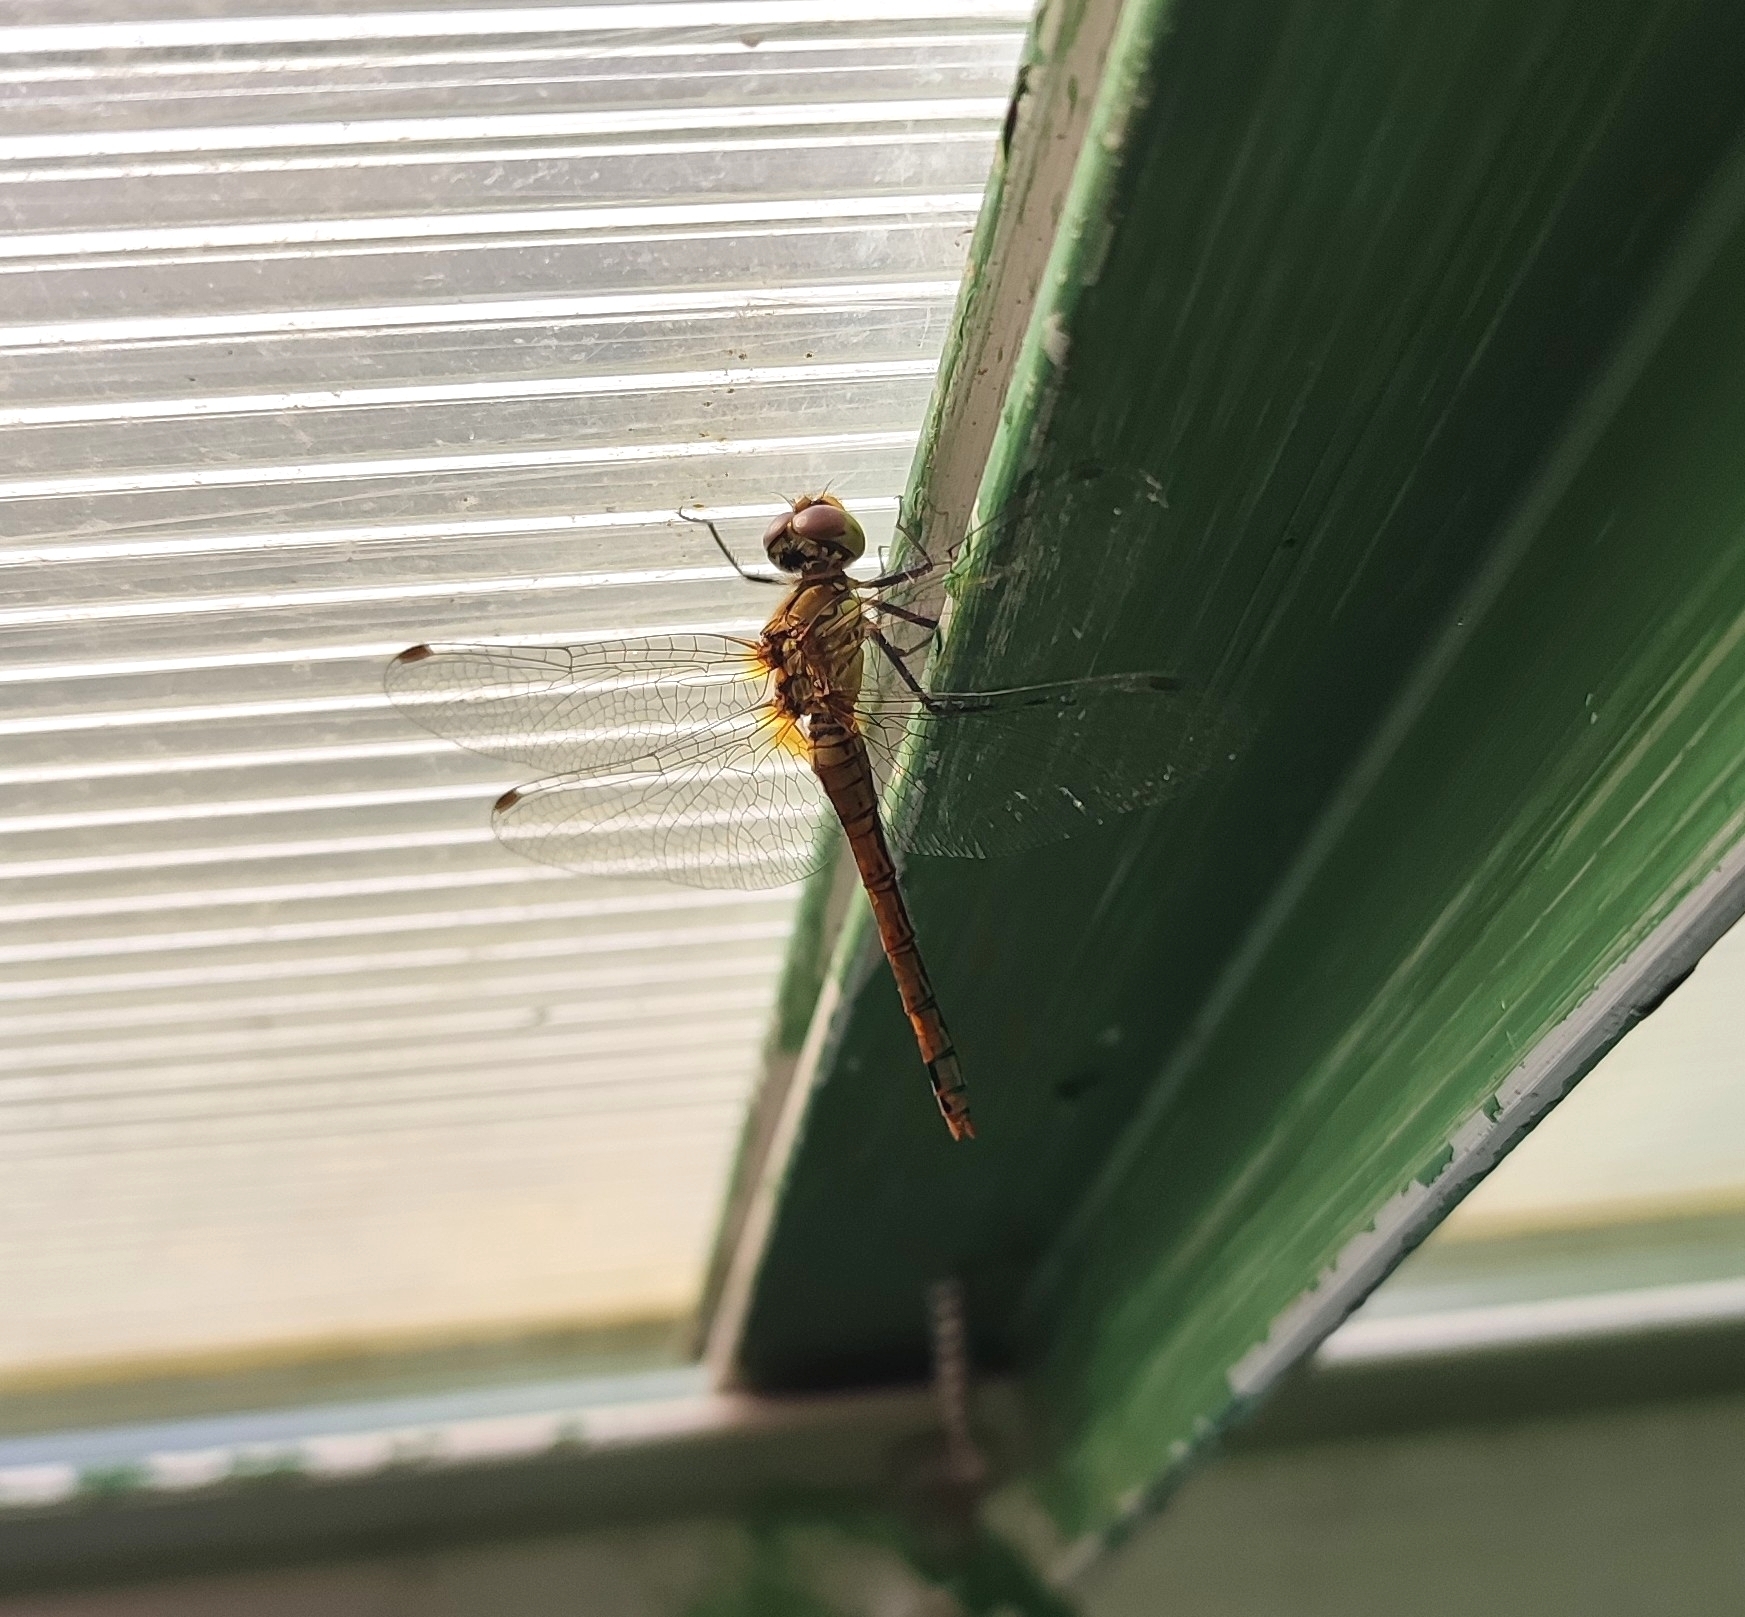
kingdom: Animalia
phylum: Arthropoda
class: Insecta
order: Odonata
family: Libellulidae
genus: Sympetrum
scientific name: Sympetrum sanguineum
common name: Ruddy darter
